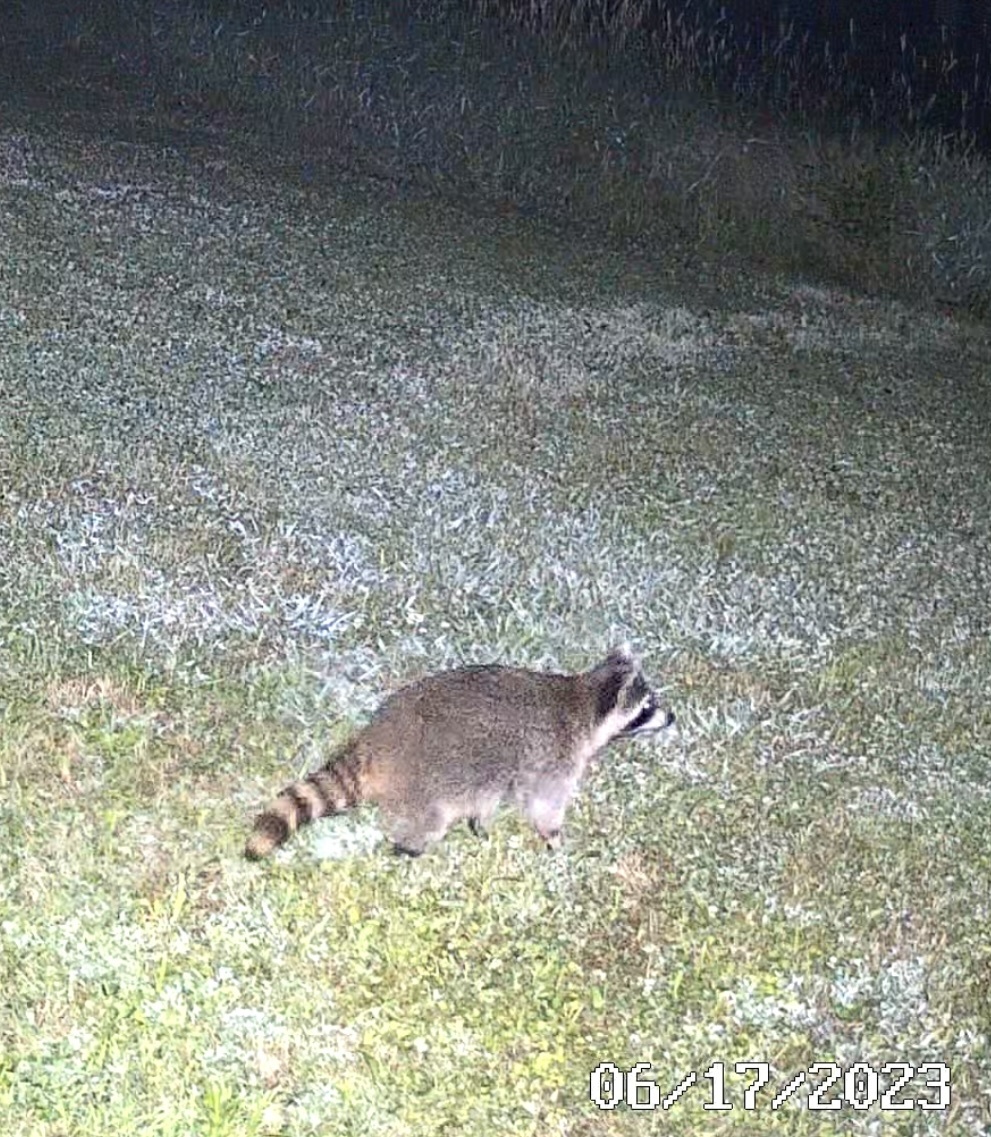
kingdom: Animalia
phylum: Chordata
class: Mammalia
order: Carnivora
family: Procyonidae
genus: Procyon
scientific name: Procyon lotor
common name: Raccoon
